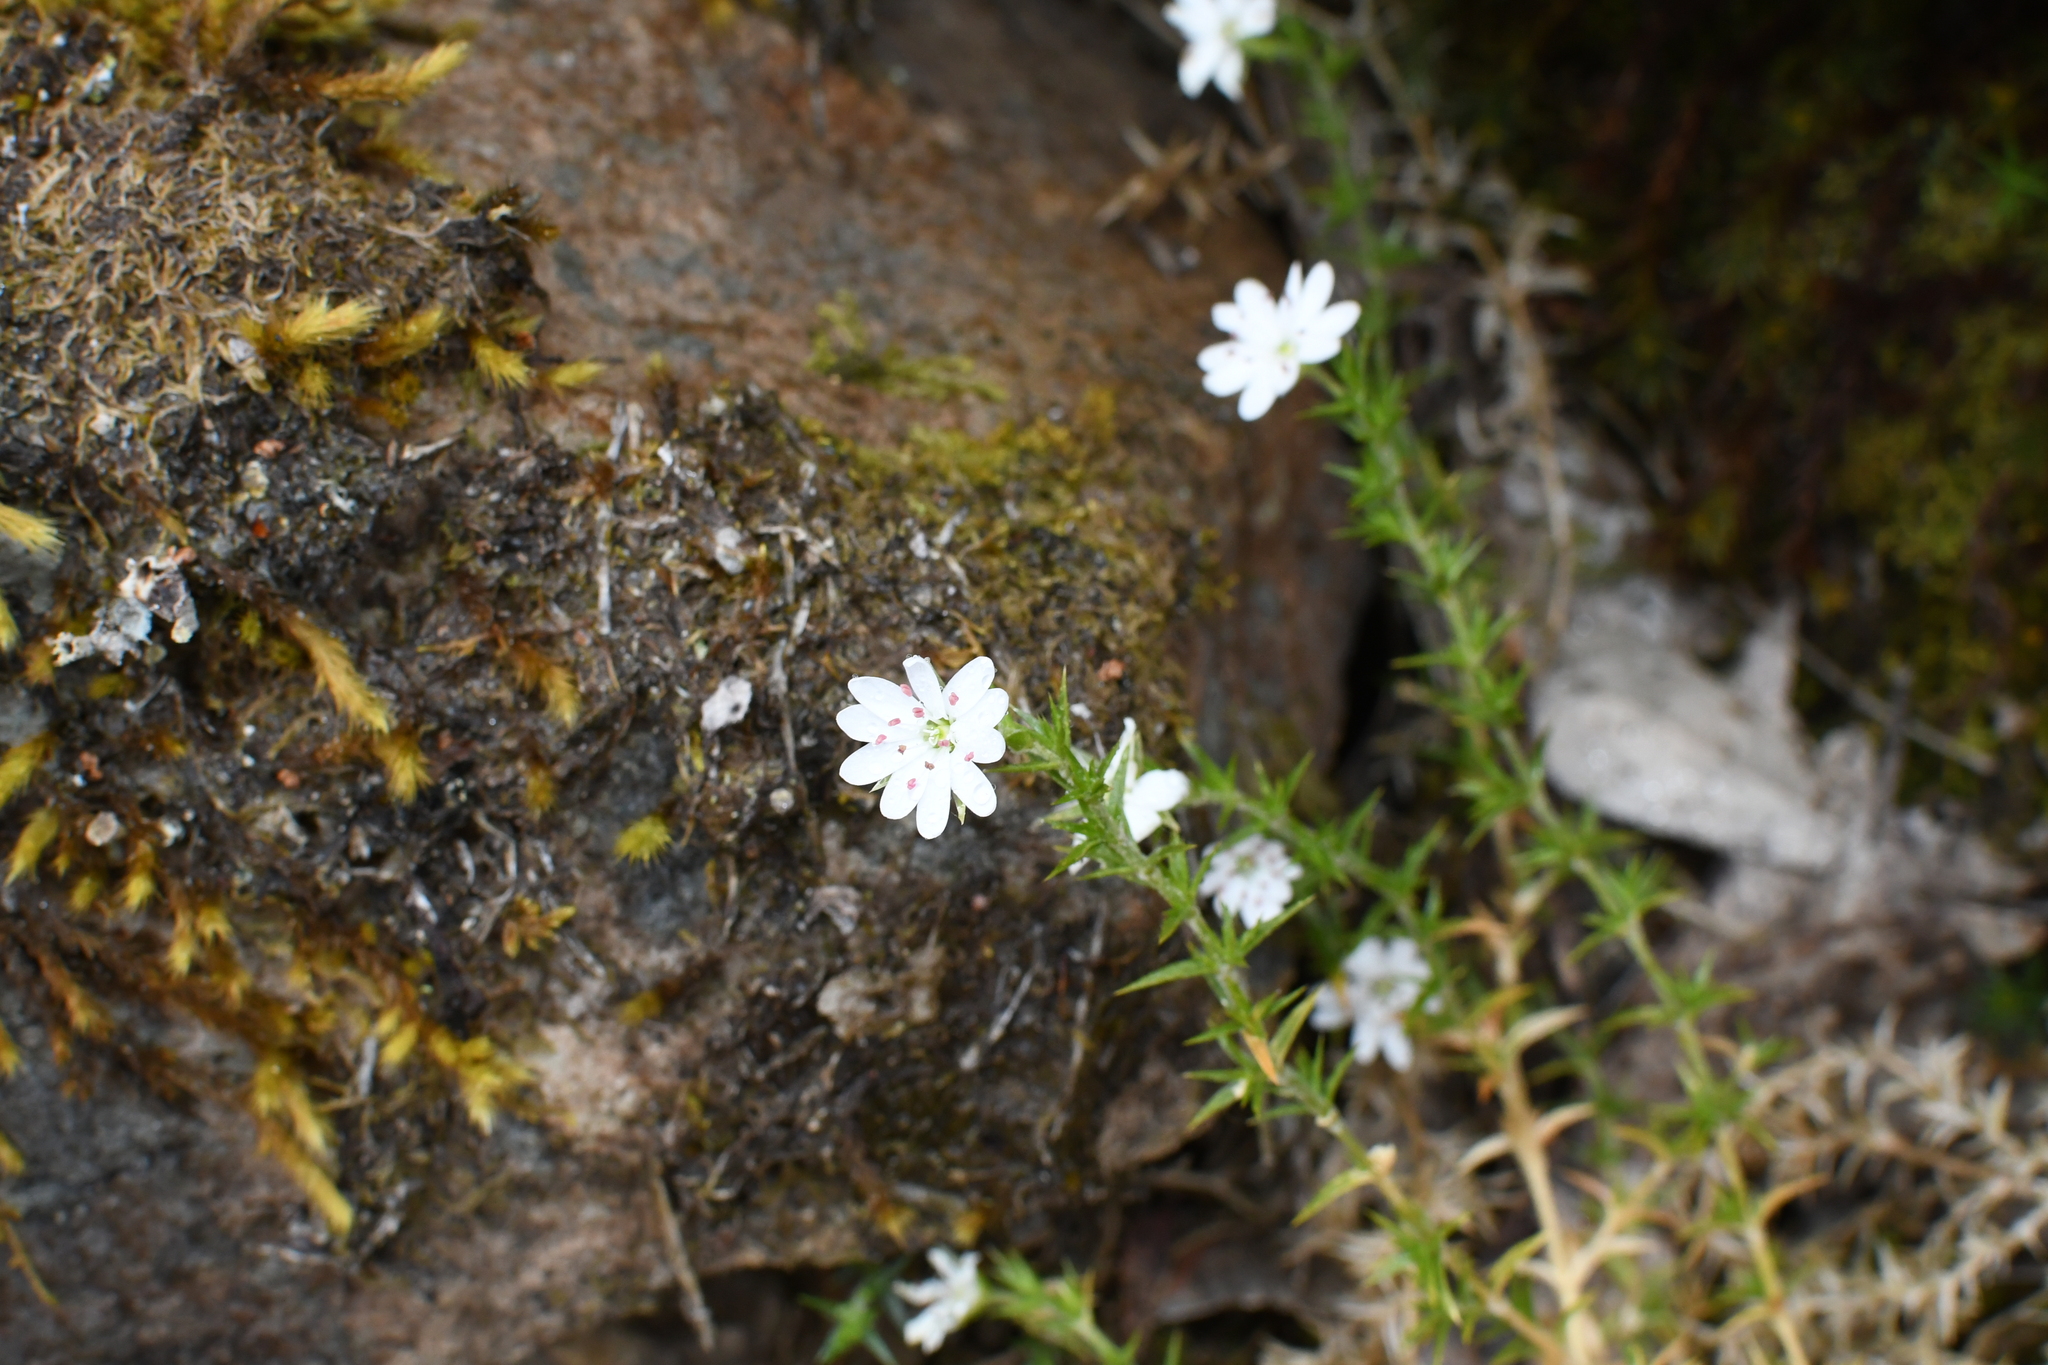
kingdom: Plantae
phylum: Tracheophyta
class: Magnoliopsida
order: Caryophyllales
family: Caryophyllaceae
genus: Stellaria
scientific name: Stellaria pungens
